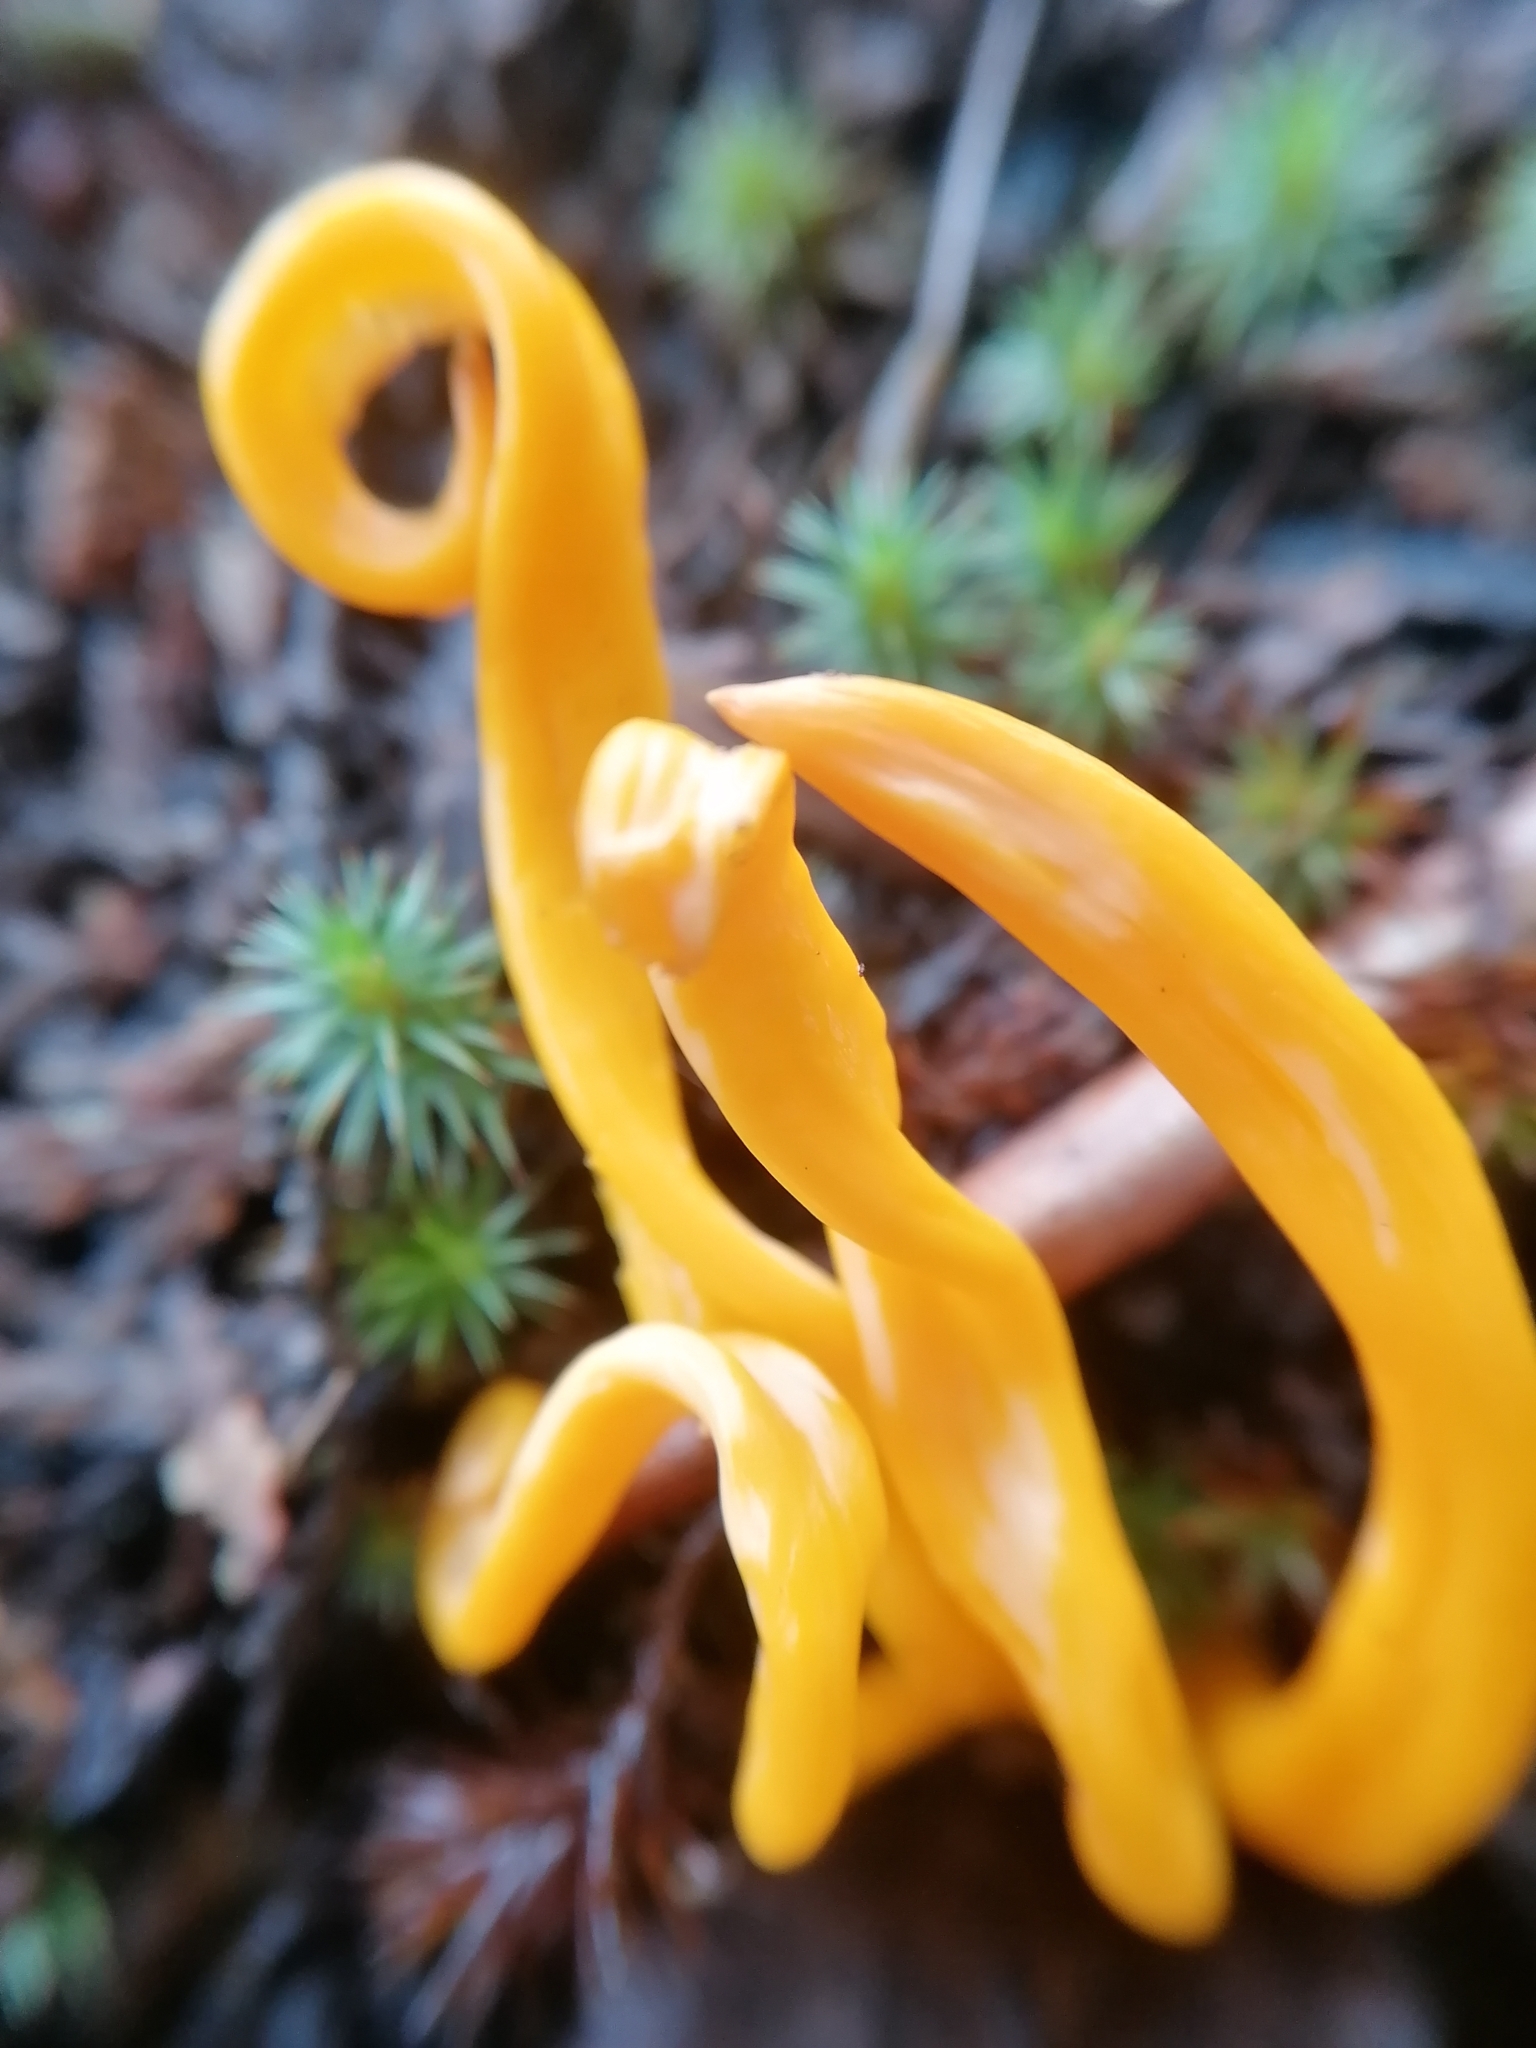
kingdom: Fungi
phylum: Basidiomycota
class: Agaricomycetes
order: Agaricales
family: Clavariaceae
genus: Clavulinopsis
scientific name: Clavulinopsis fusiformis
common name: Golden spindles
